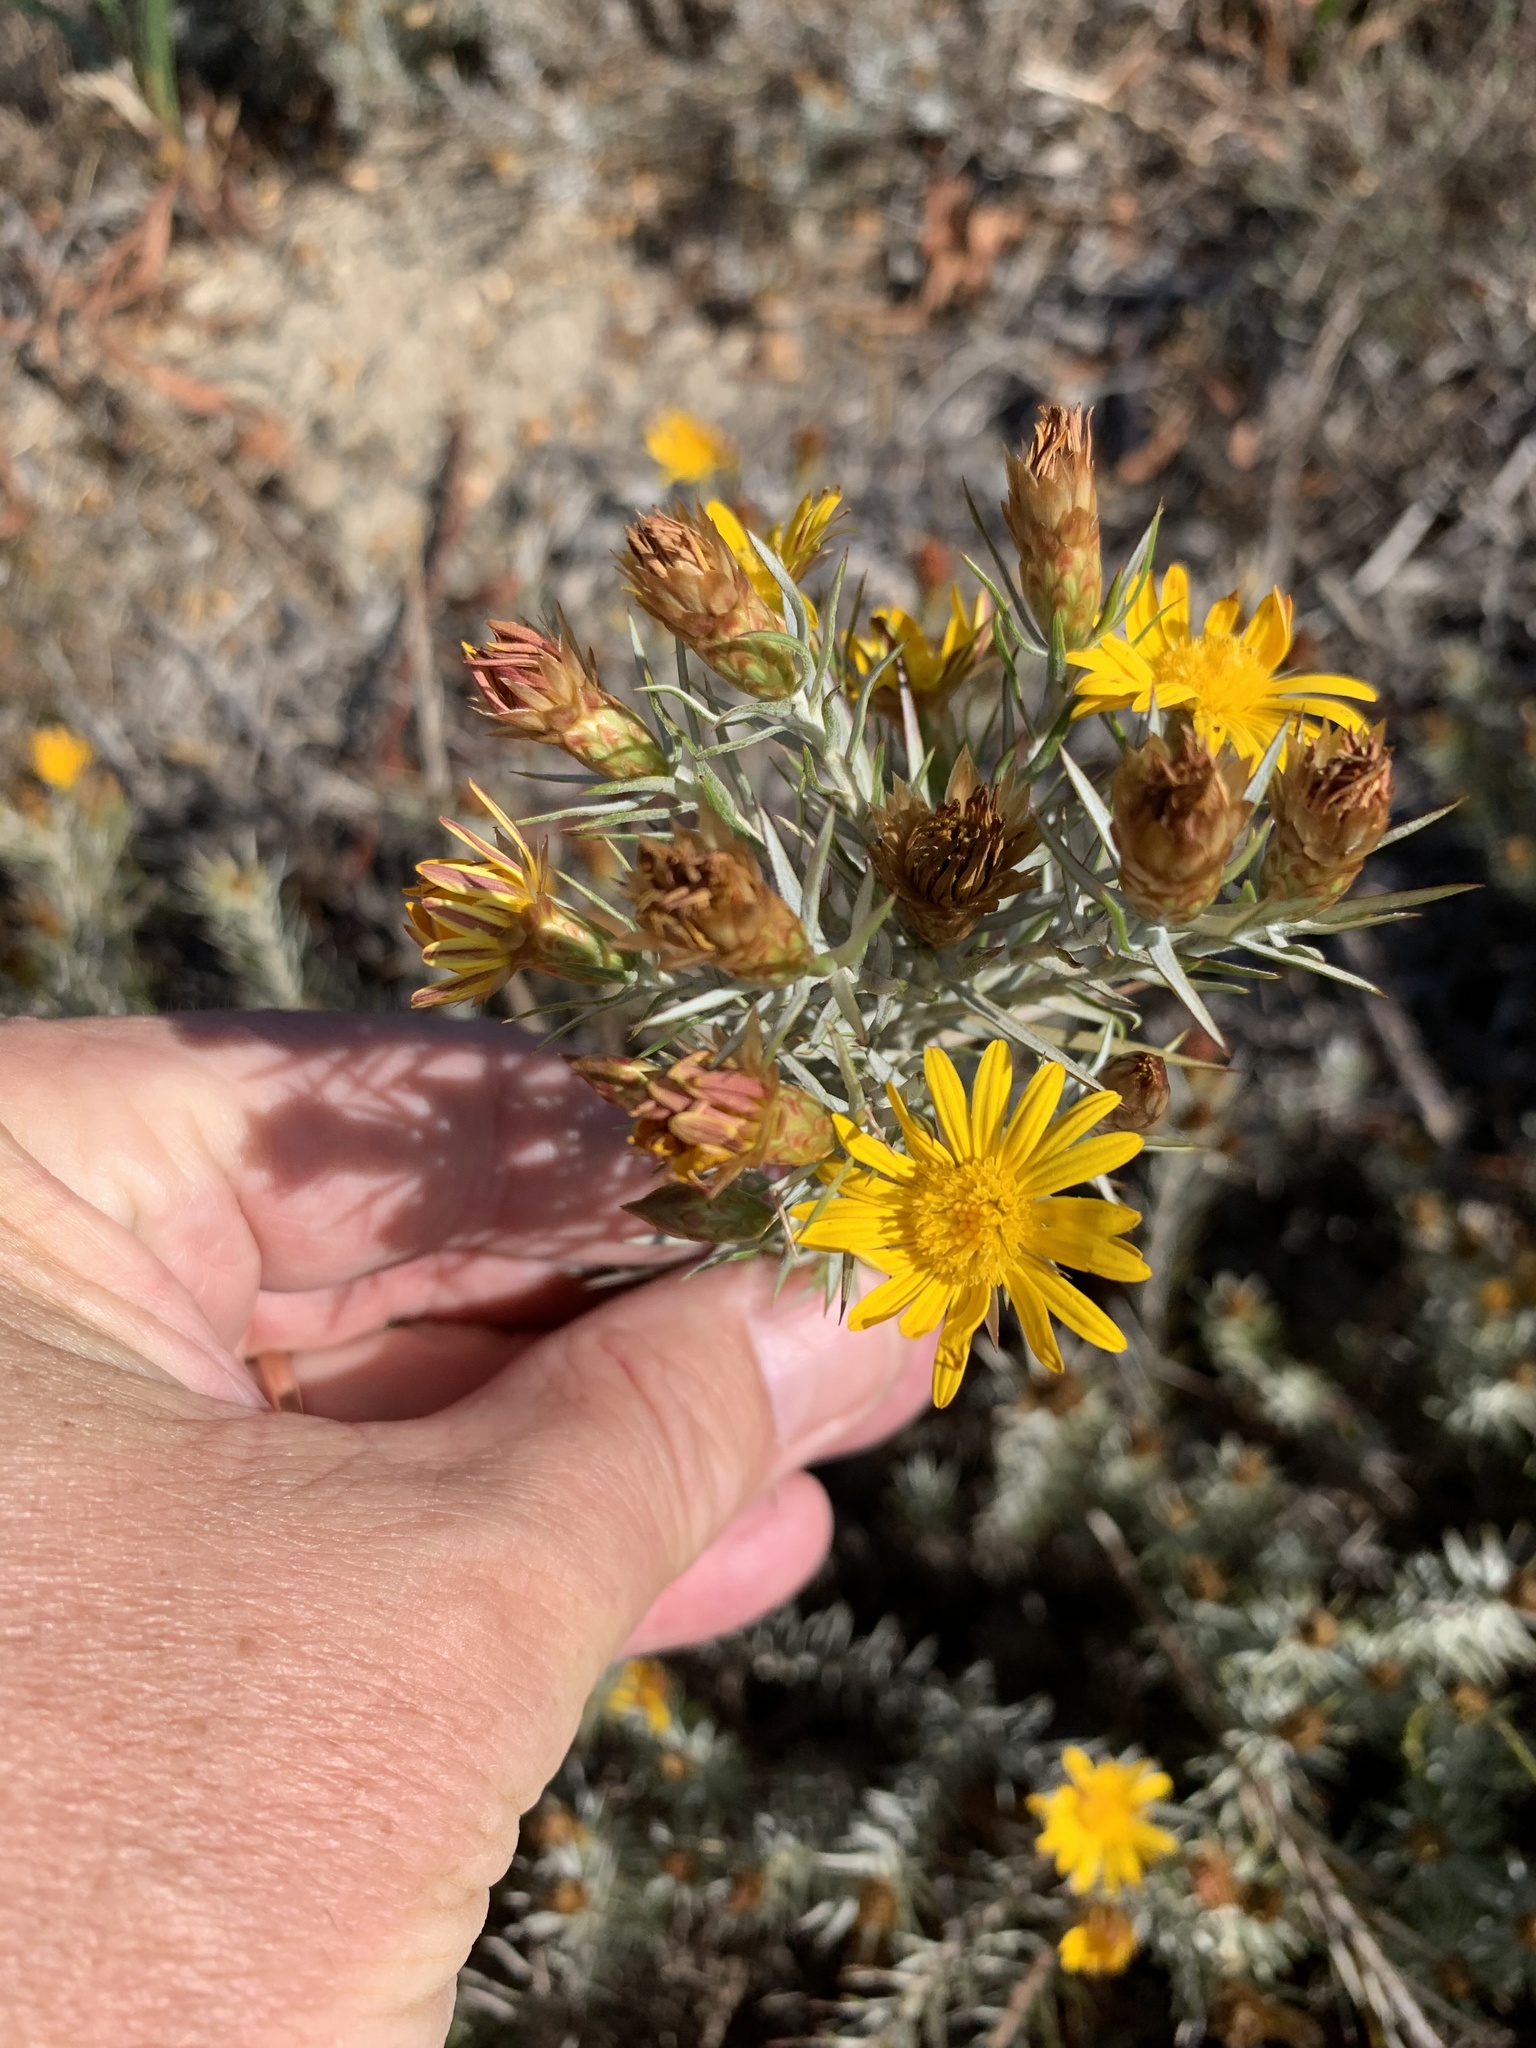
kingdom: Plantae
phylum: Tracheophyta
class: Magnoliopsida
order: Asterales
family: Asteraceae
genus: Oedera
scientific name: Oedera pungens
